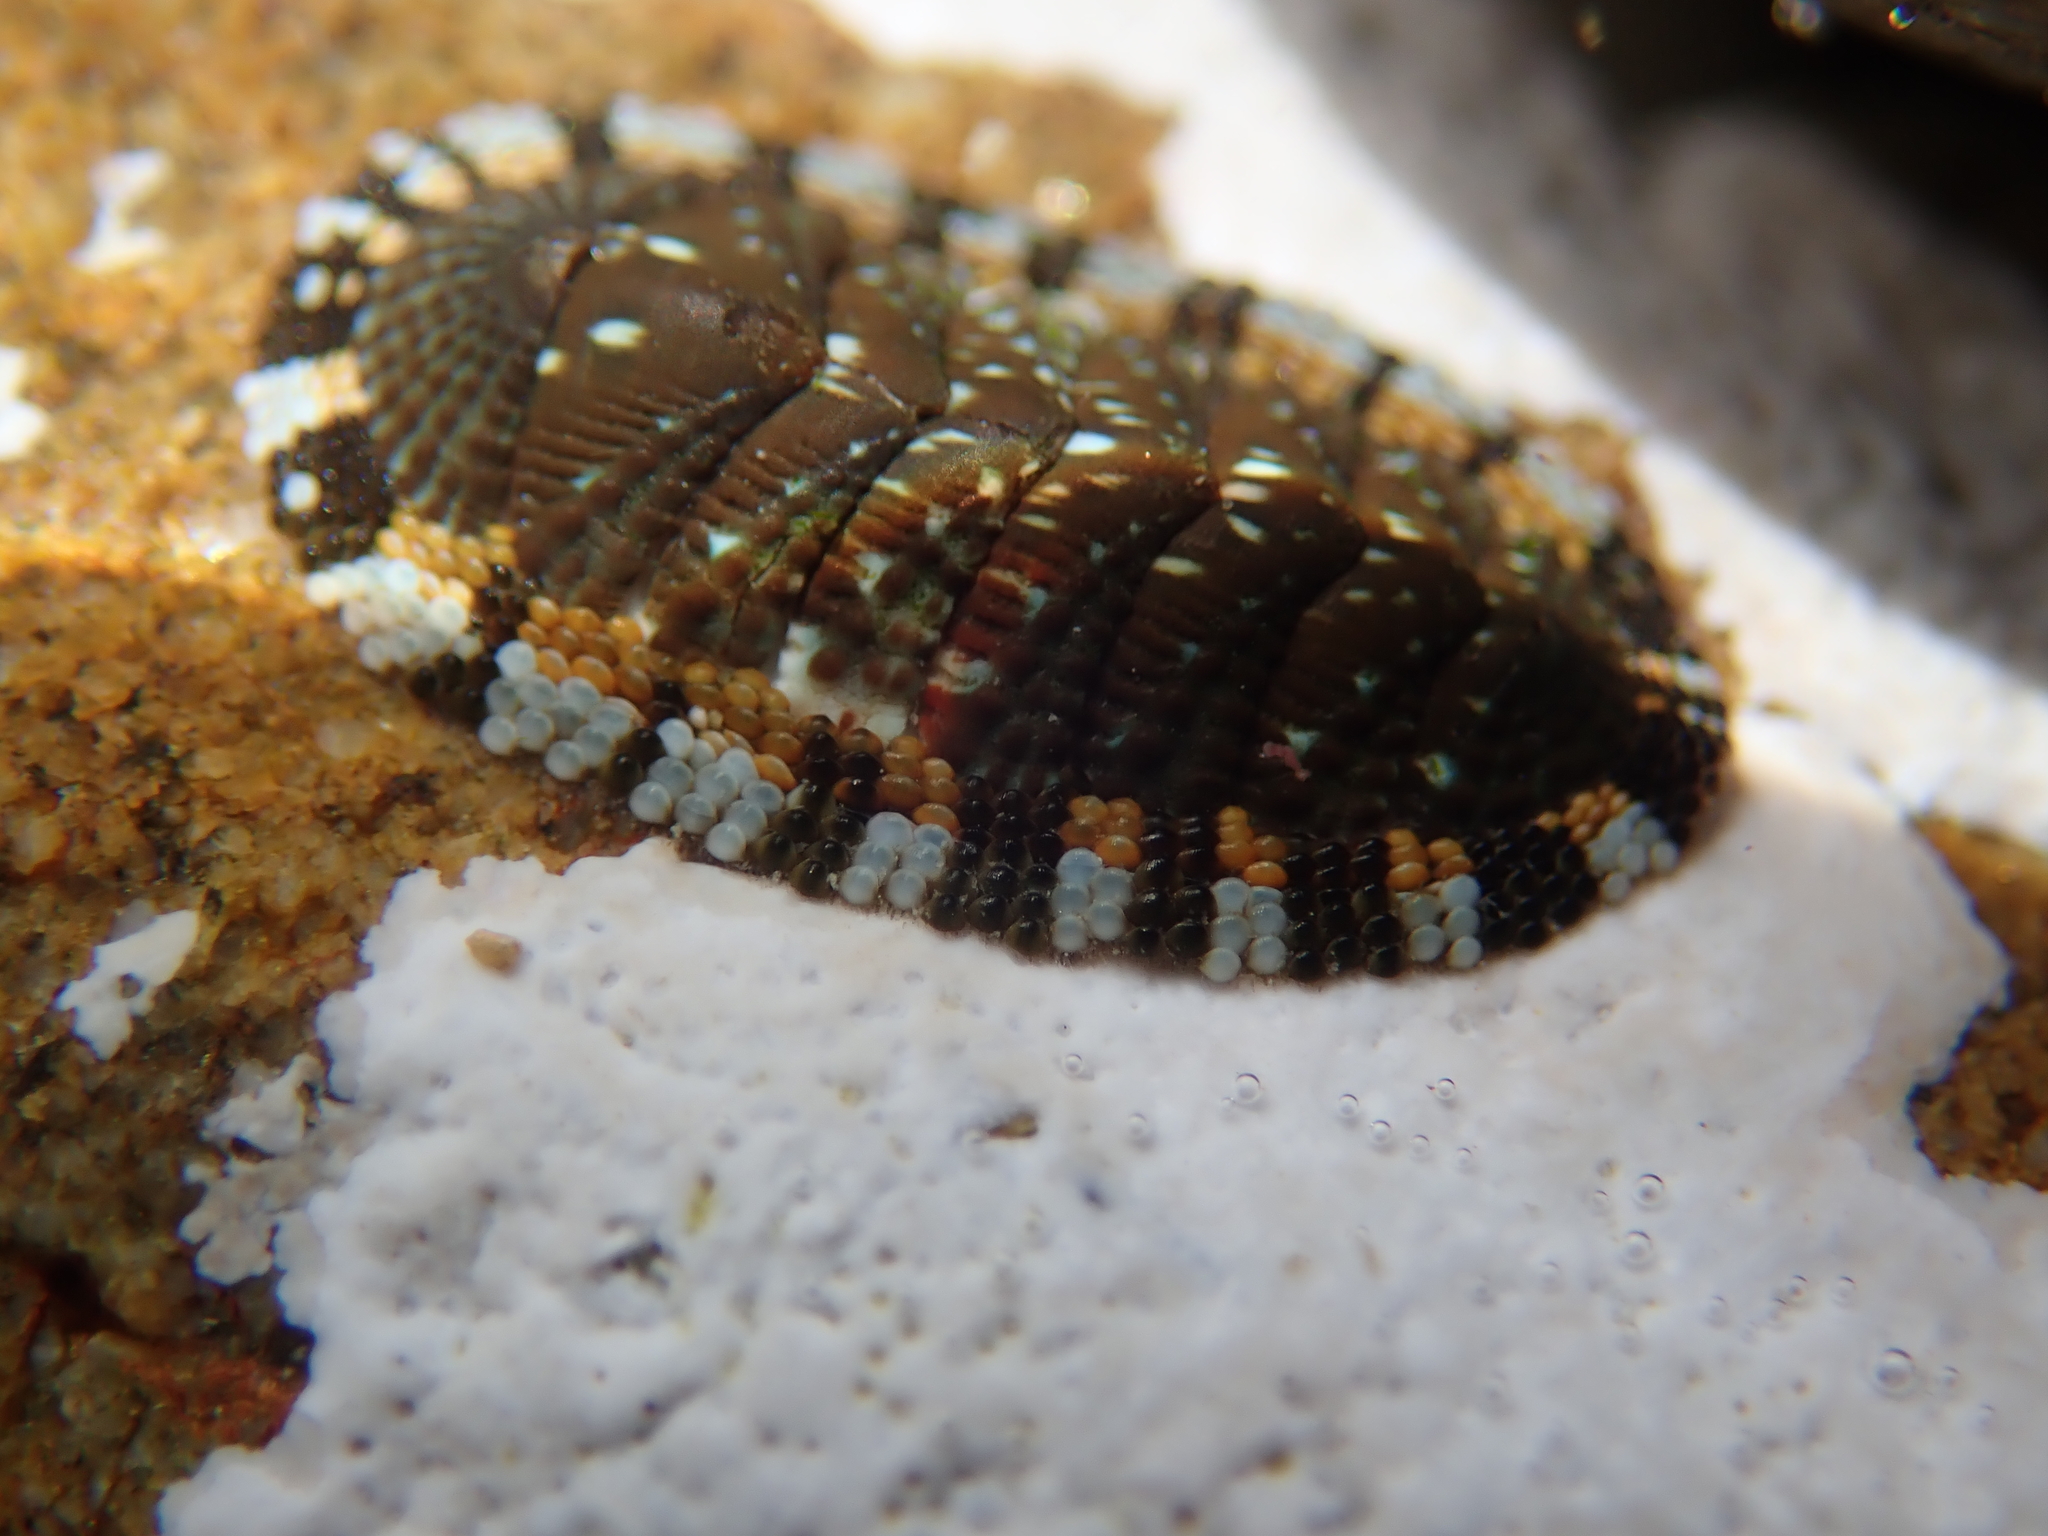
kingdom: Animalia
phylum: Mollusca
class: Polyplacophora
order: Chitonida
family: Chitonidae
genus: Sypharochiton
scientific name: Sypharochiton sinclairi
